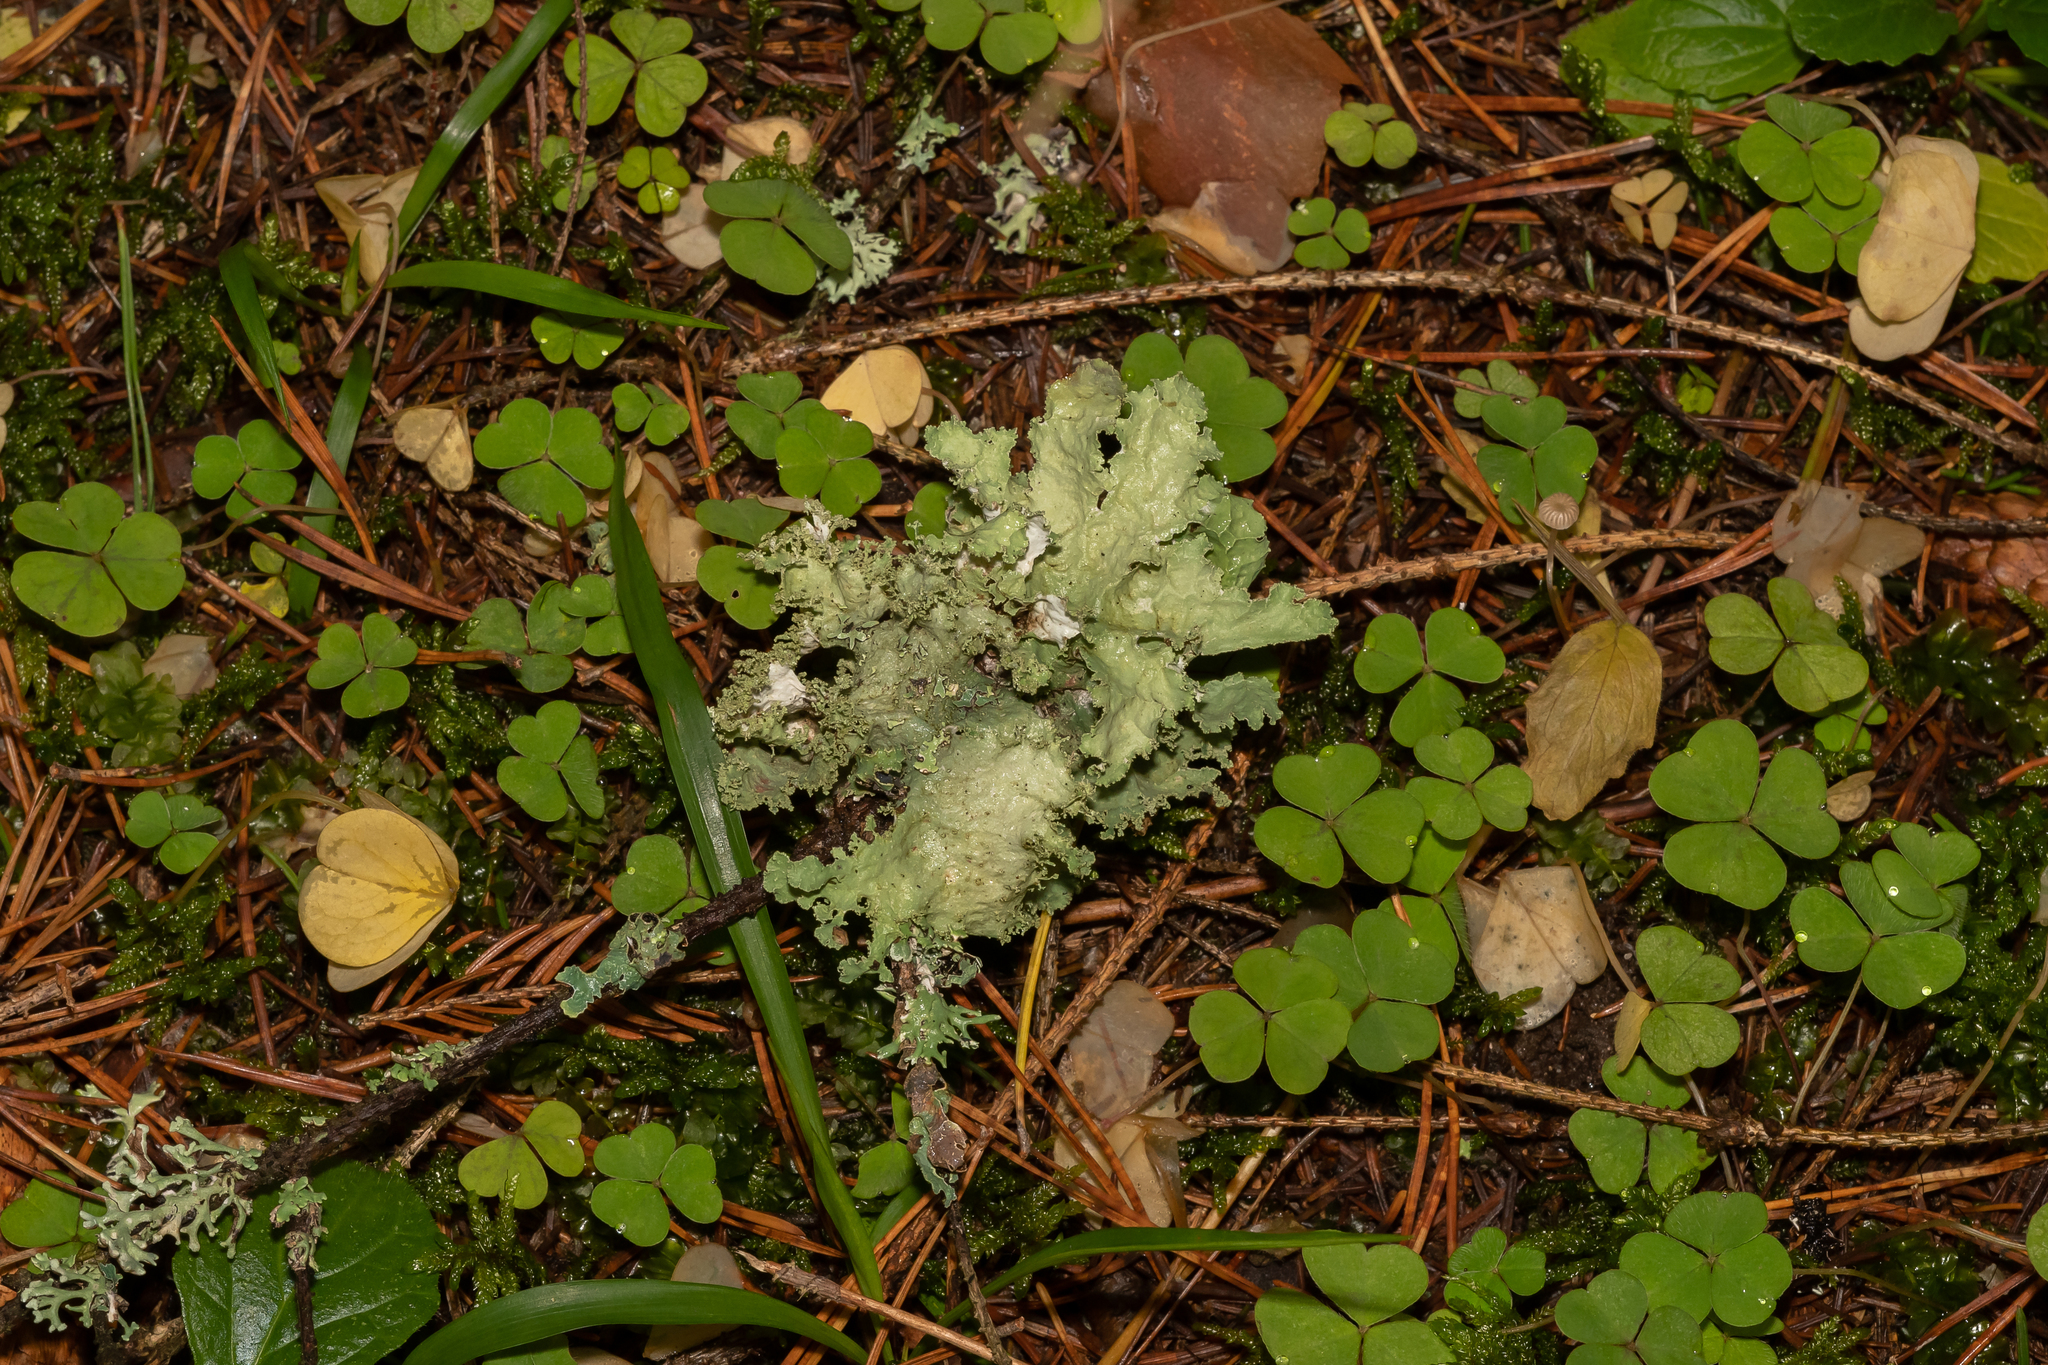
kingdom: Fungi
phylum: Ascomycota
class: Lecanoromycetes
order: Lecanorales
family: Parmeliaceae
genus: Platismatia
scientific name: Platismatia glauca
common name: Varied rag lichen
